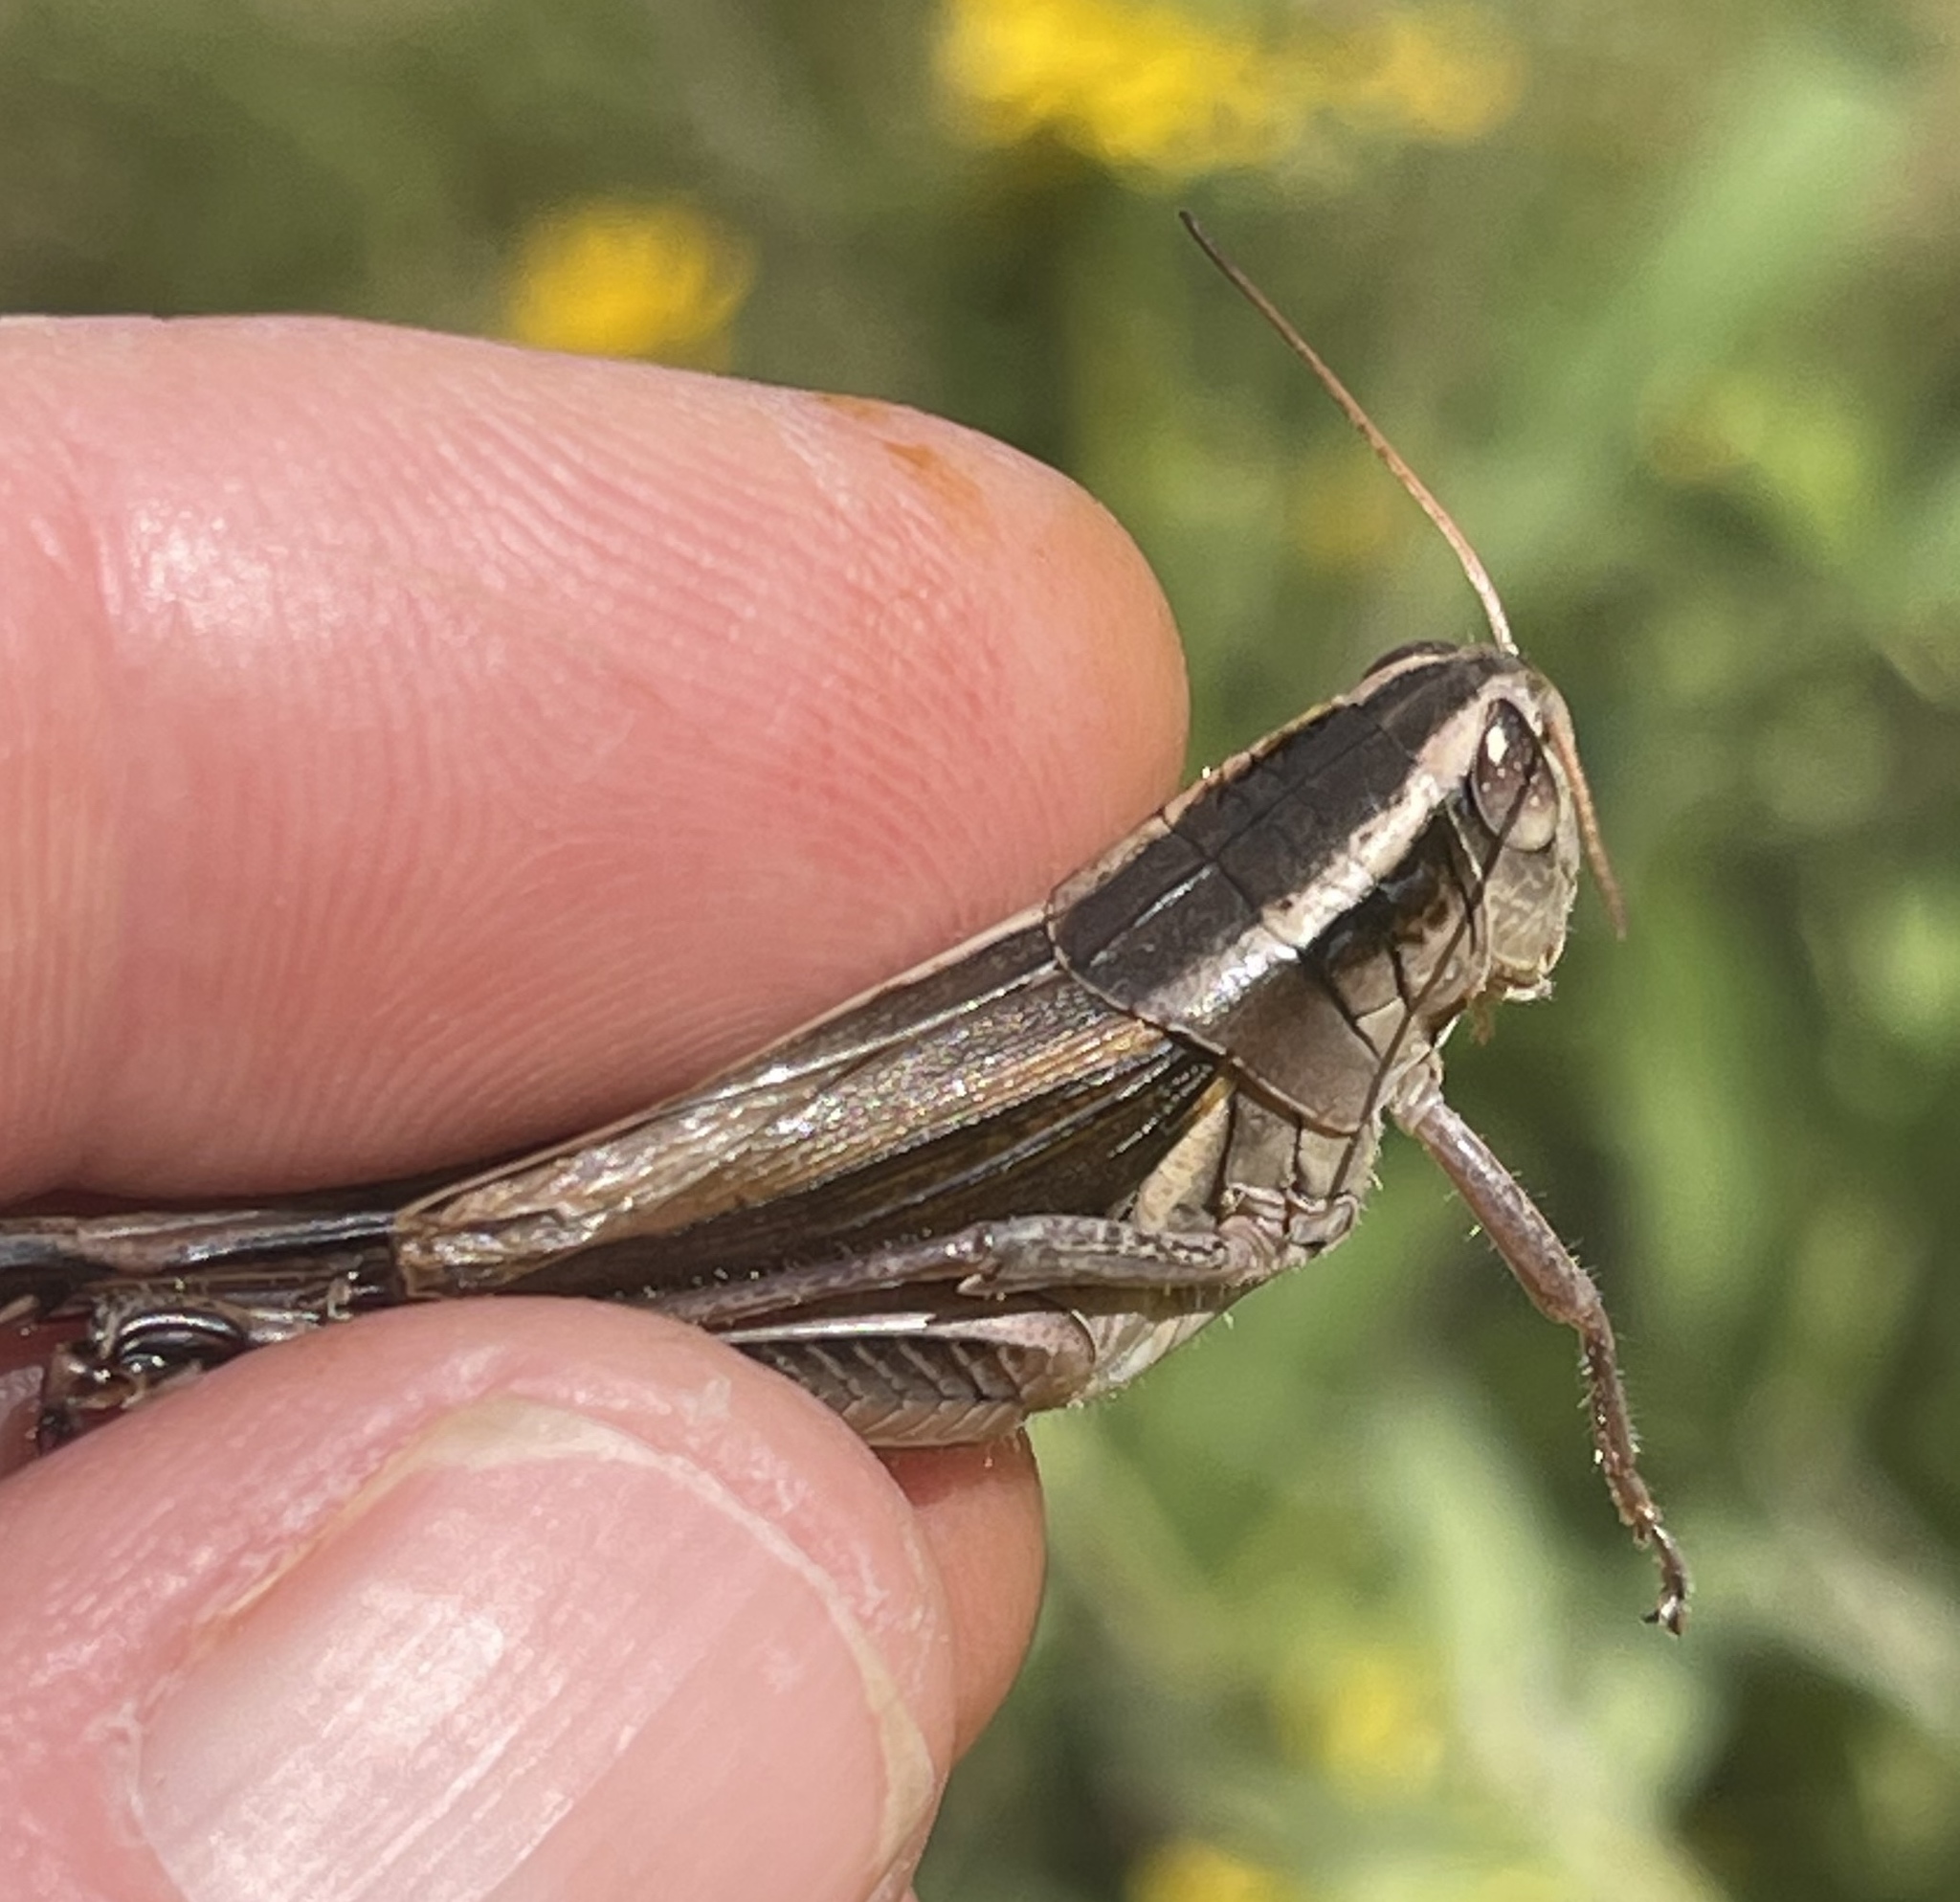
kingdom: Animalia
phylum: Arthropoda
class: Insecta
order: Orthoptera
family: Acrididae
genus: Melanoplus
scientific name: Melanoplus bivittatus
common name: Two-striped grasshopper
